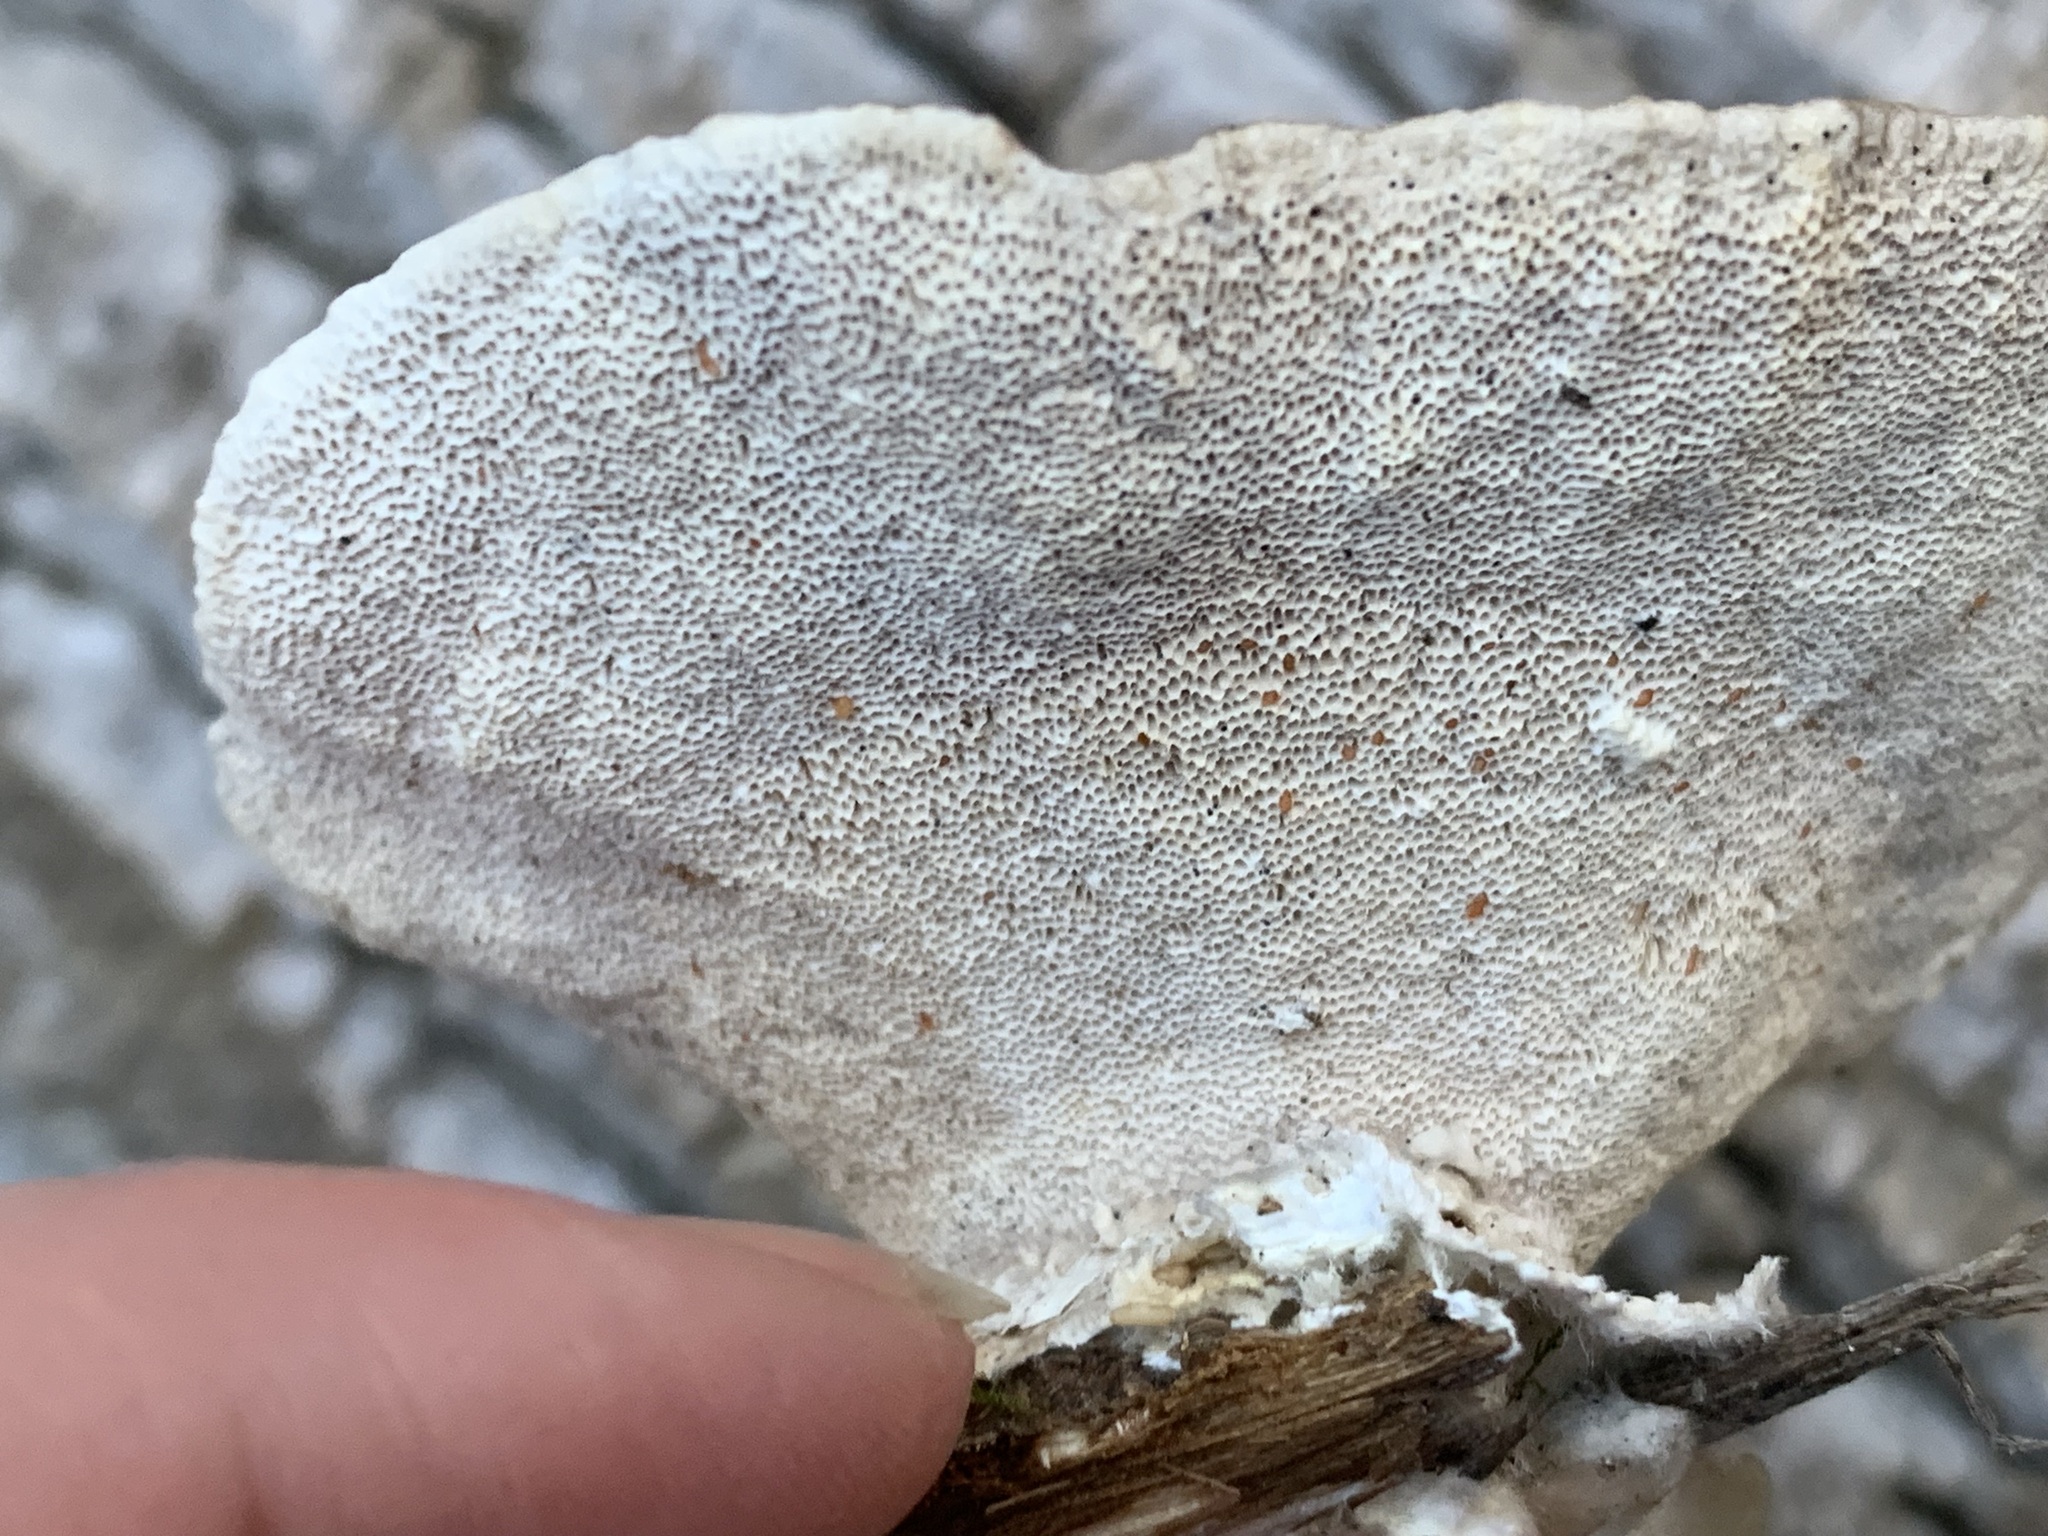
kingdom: Fungi
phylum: Basidiomycota
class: Agaricomycetes
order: Polyporales
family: Polyporaceae
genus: Trametes
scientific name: Trametes hirsuta
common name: Hairy bracket
